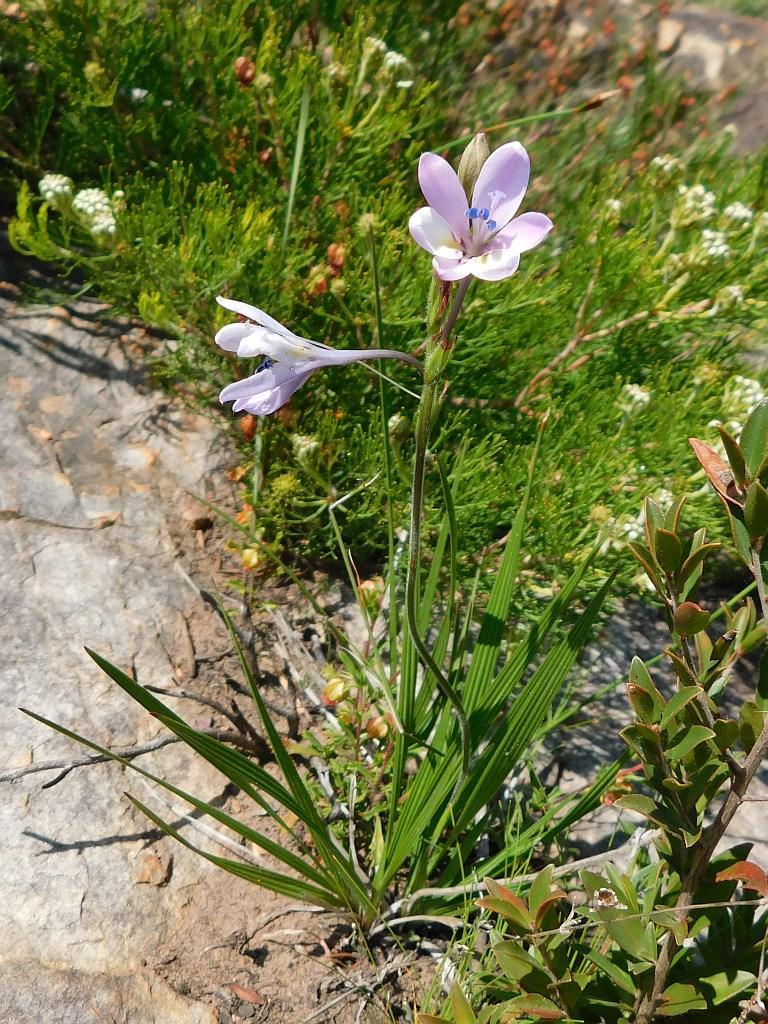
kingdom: Plantae
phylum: Tracheophyta
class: Liliopsida
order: Asparagales
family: Iridaceae
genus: Babiana
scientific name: Babiana nervosa
